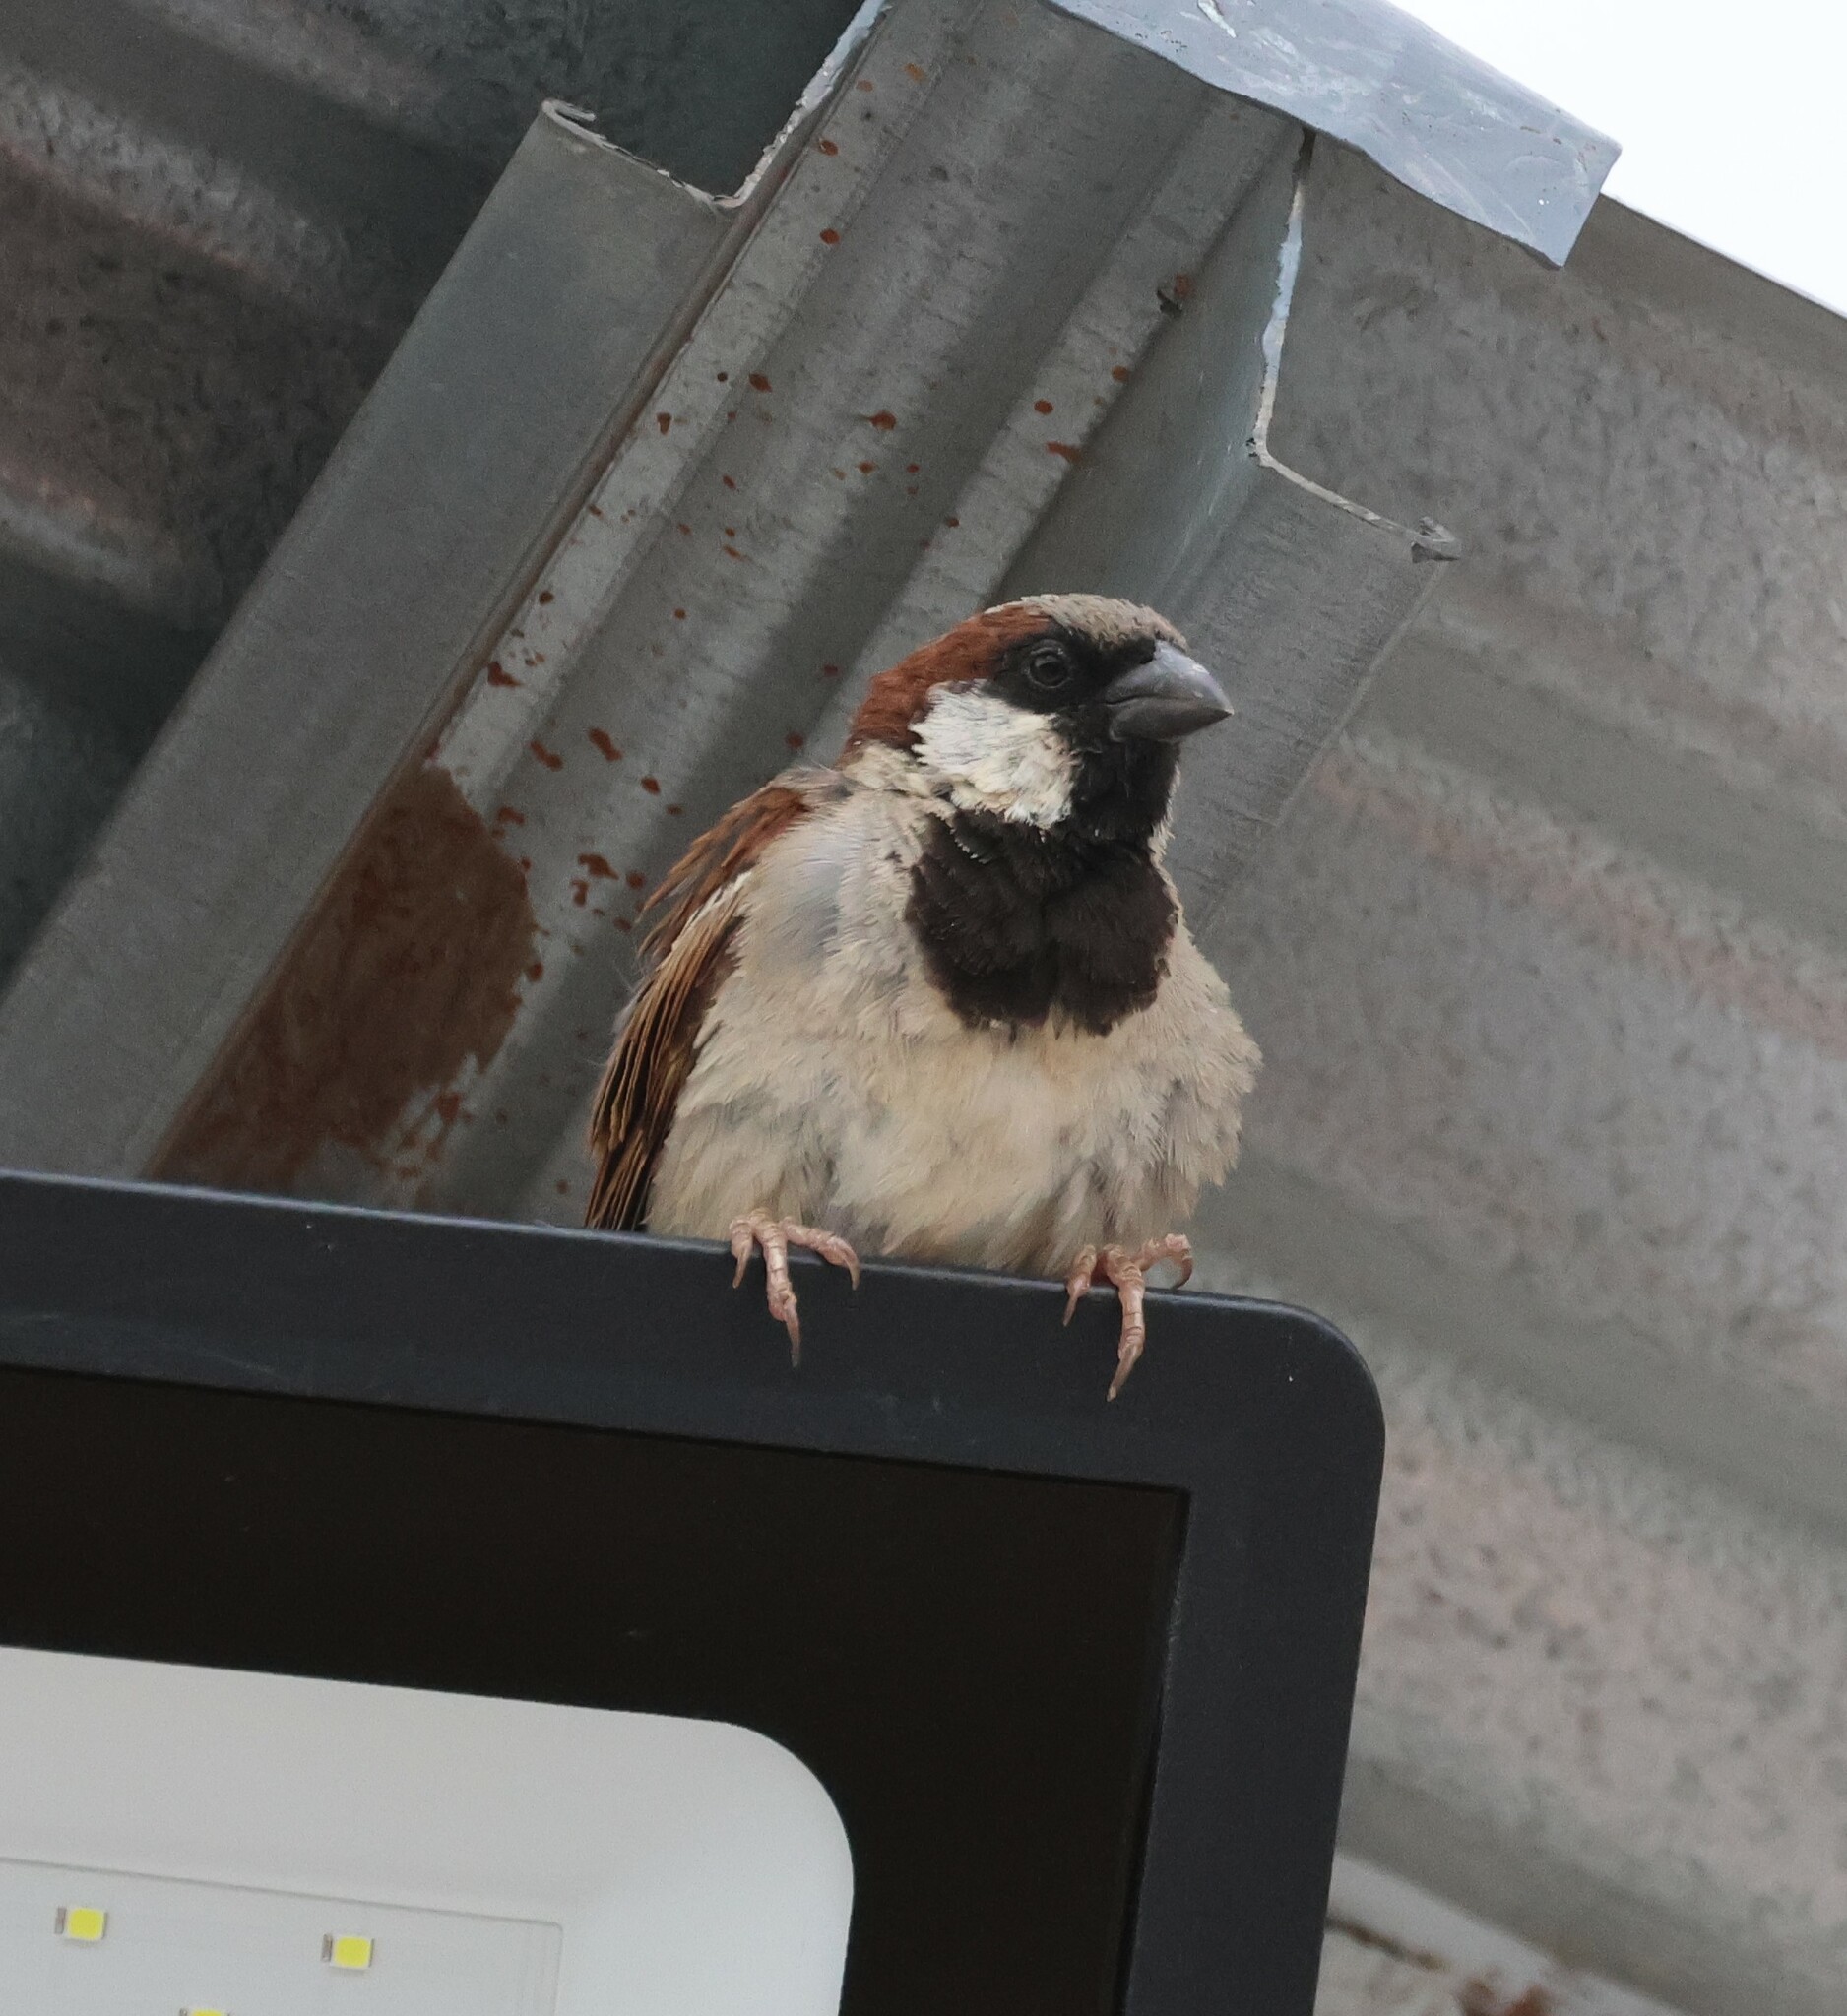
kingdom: Animalia
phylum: Chordata
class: Aves
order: Passeriformes
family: Passeridae
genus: Passer
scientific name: Passer domesticus
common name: House sparrow
